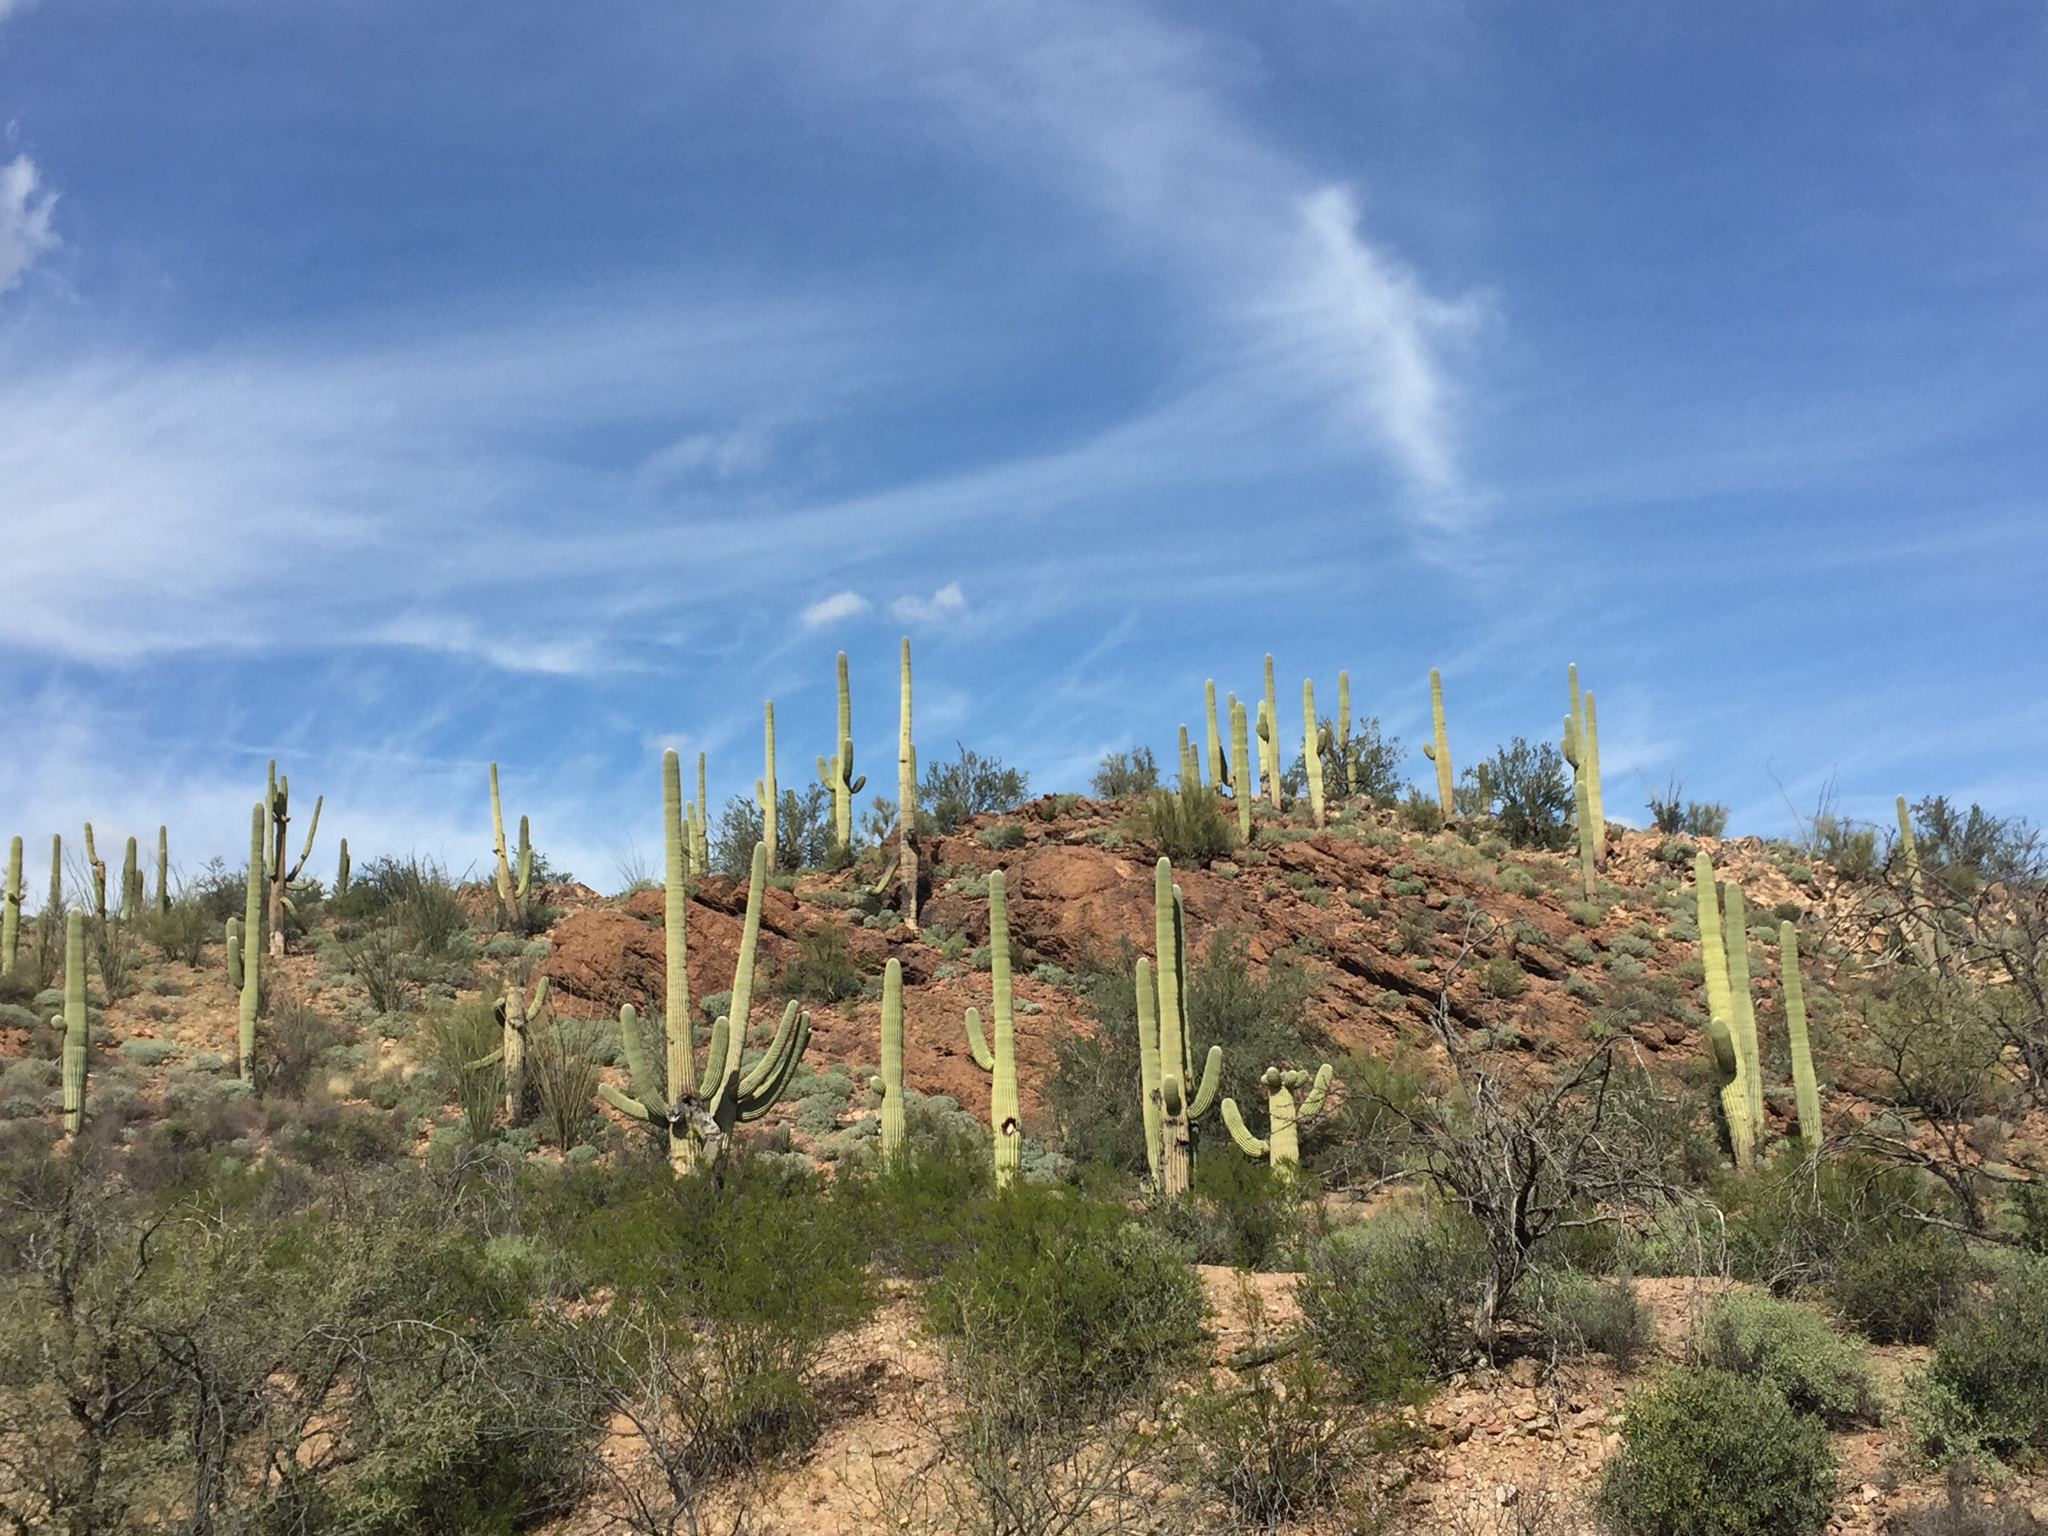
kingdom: Plantae
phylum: Tracheophyta
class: Magnoliopsida
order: Caryophyllales
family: Cactaceae
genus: Carnegiea
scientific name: Carnegiea gigantea
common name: Saguaro
